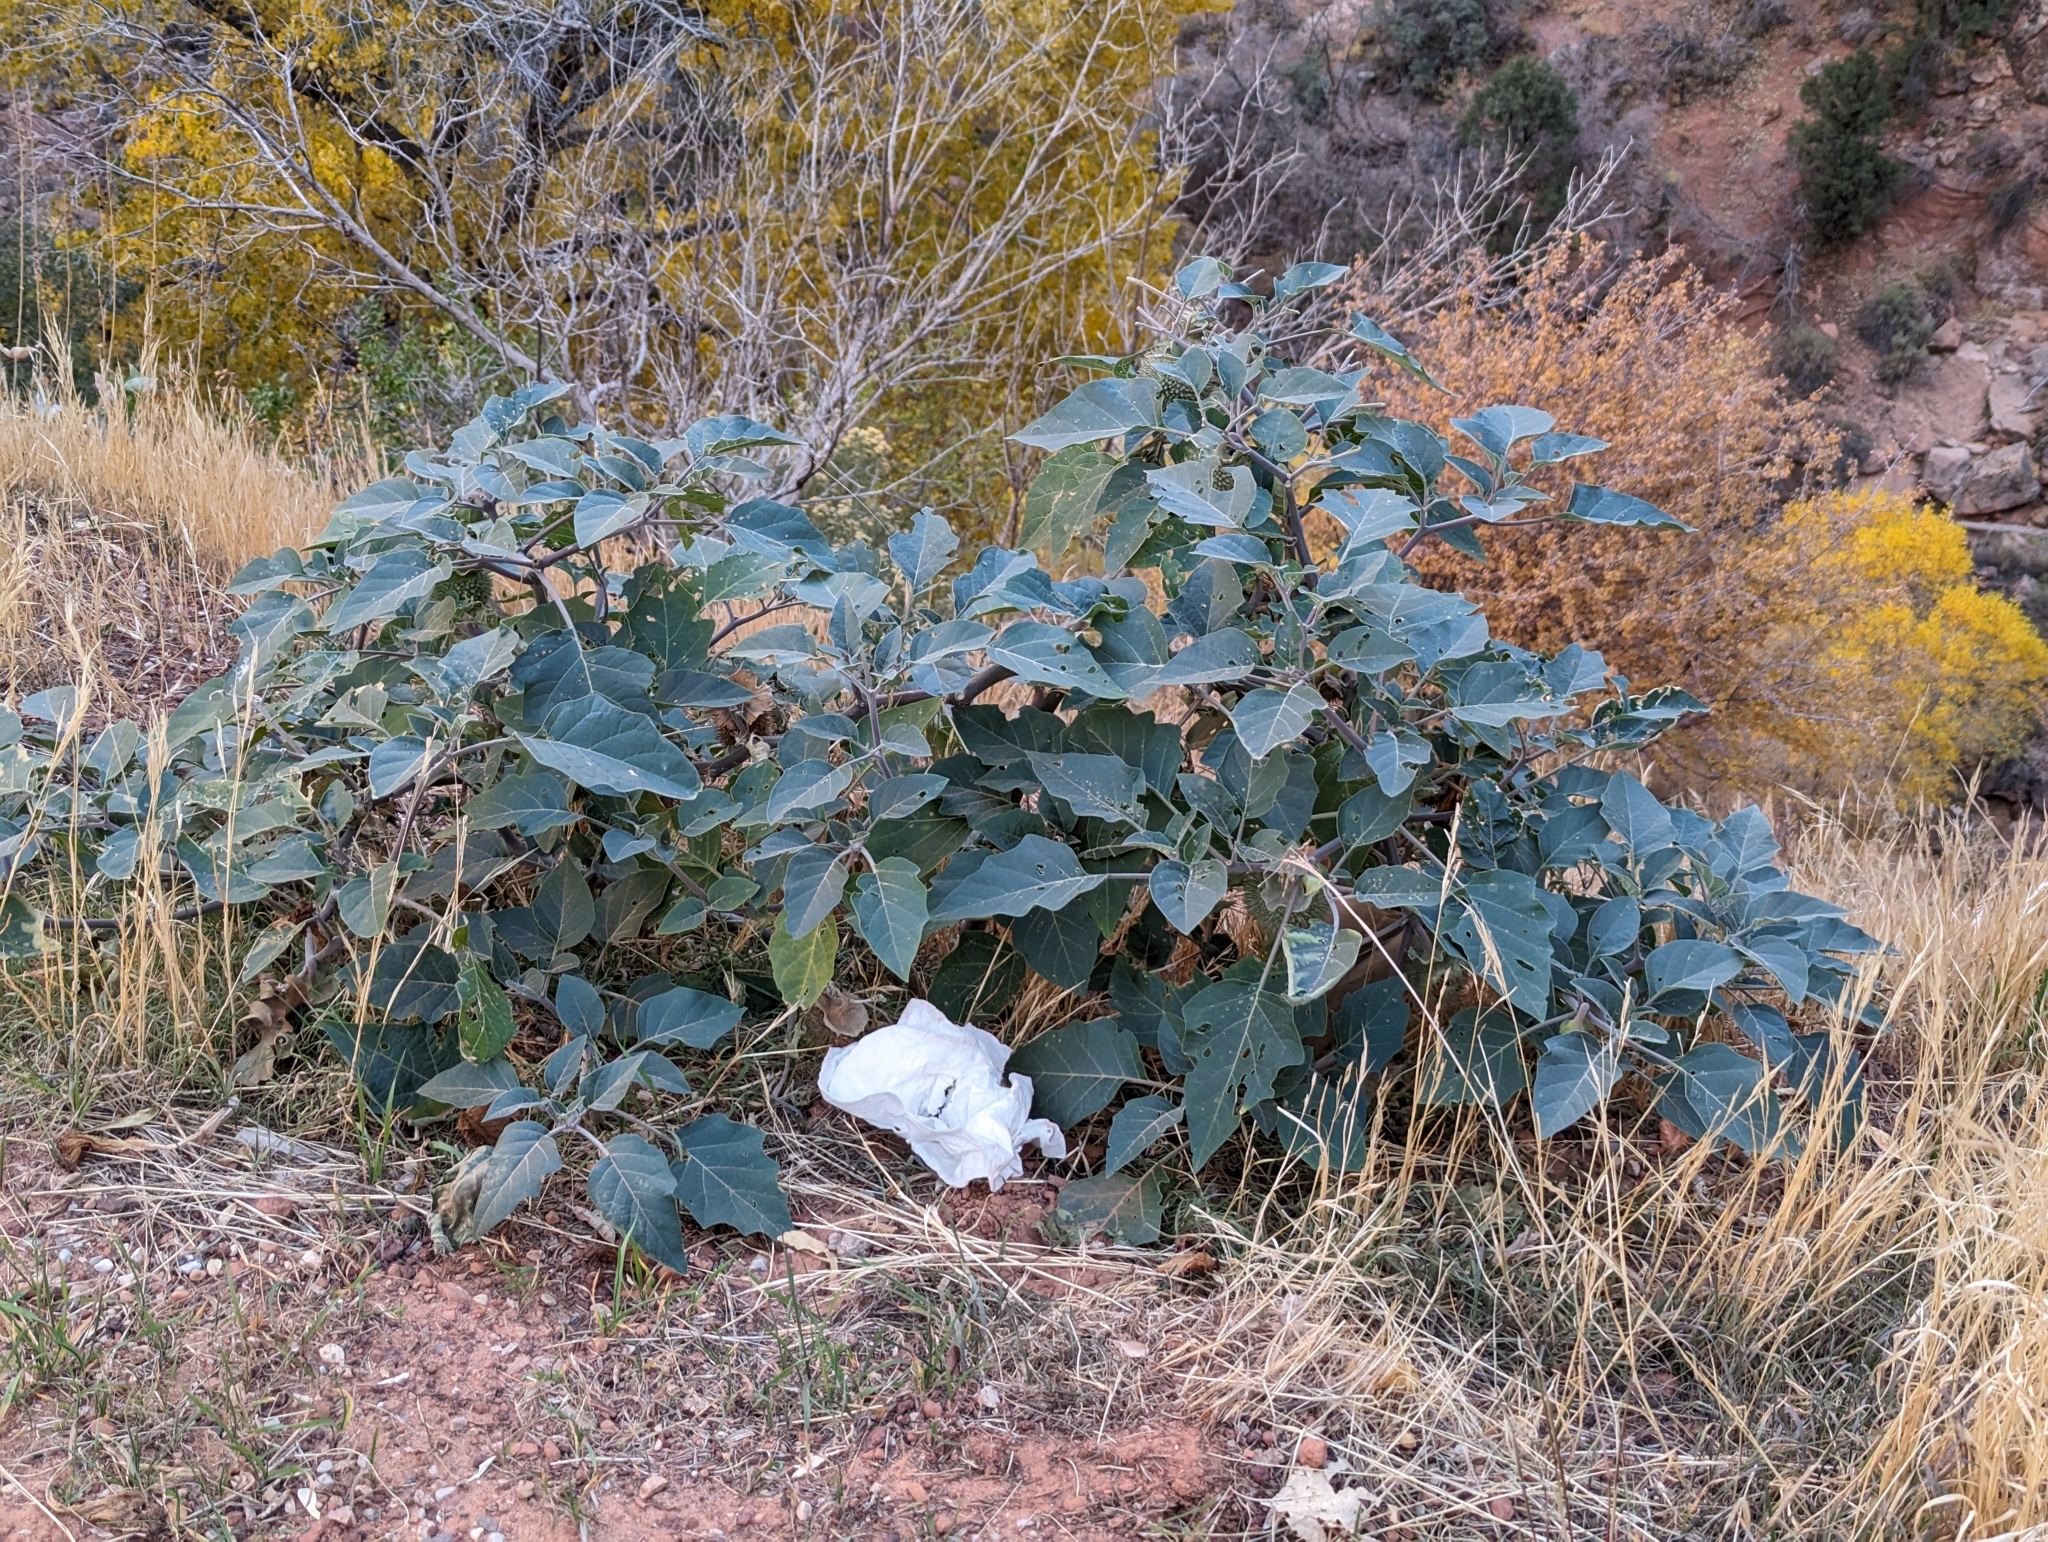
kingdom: Plantae
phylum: Tracheophyta
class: Magnoliopsida
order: Solanales
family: Solanaceae
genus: Datura
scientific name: Datura wrightii
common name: Sacred thorn-apple
